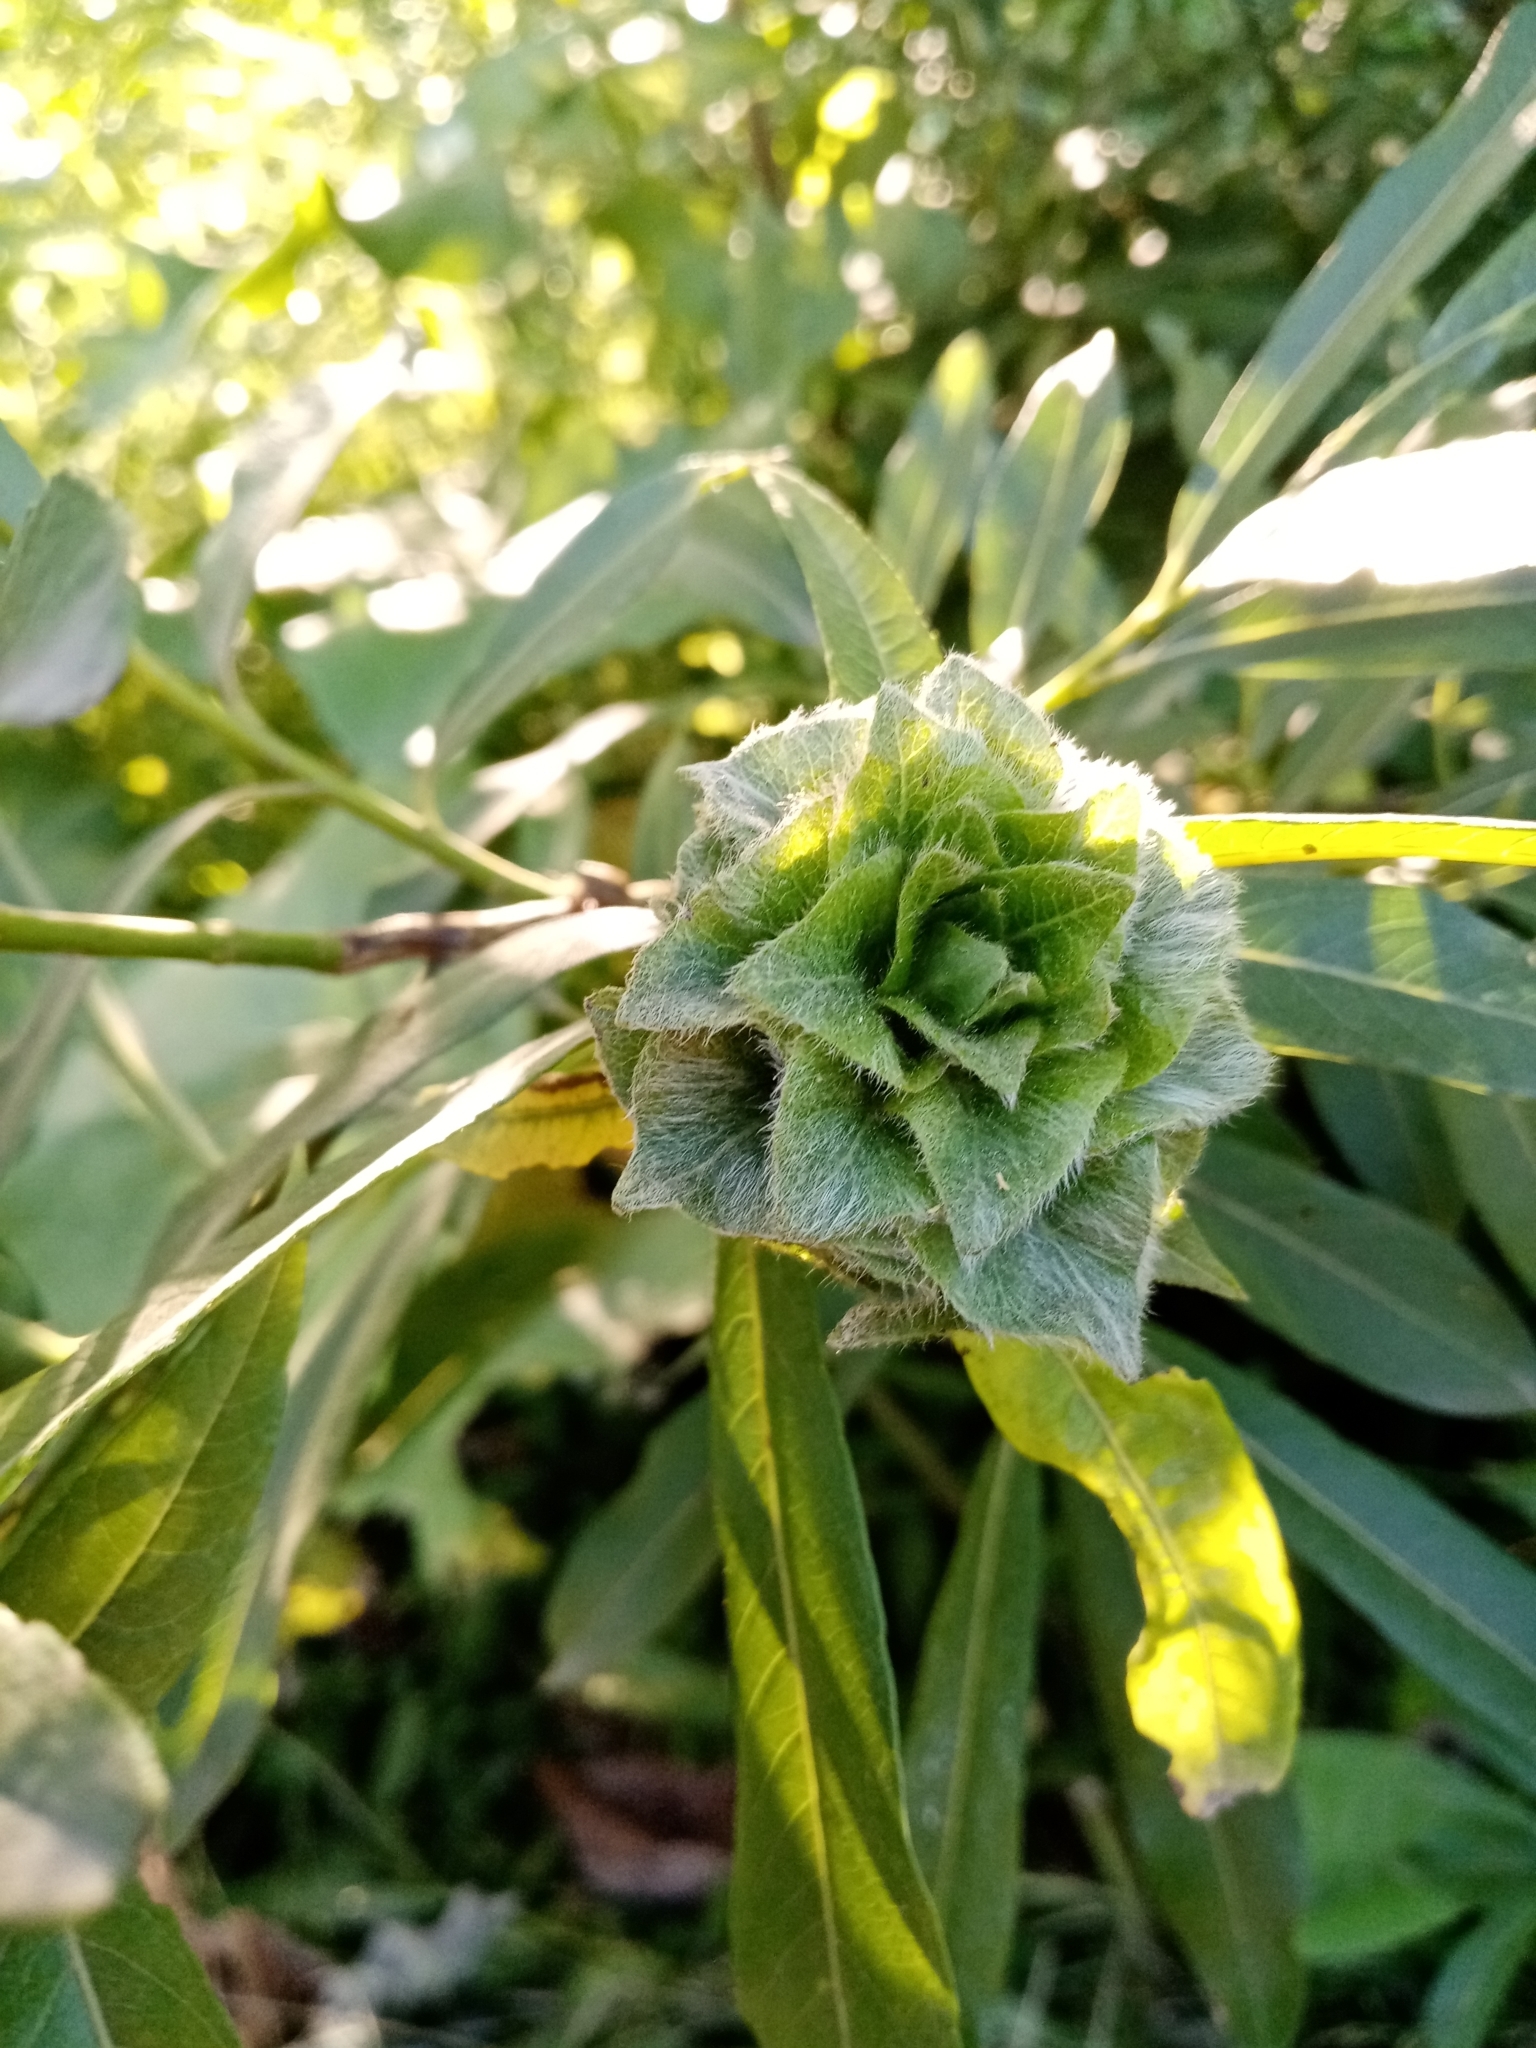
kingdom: Plantae
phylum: Tracheophyta
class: Magnoliopsida
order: Malpighiales
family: Salicaceae
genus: Salix
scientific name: Salix gmelinii
